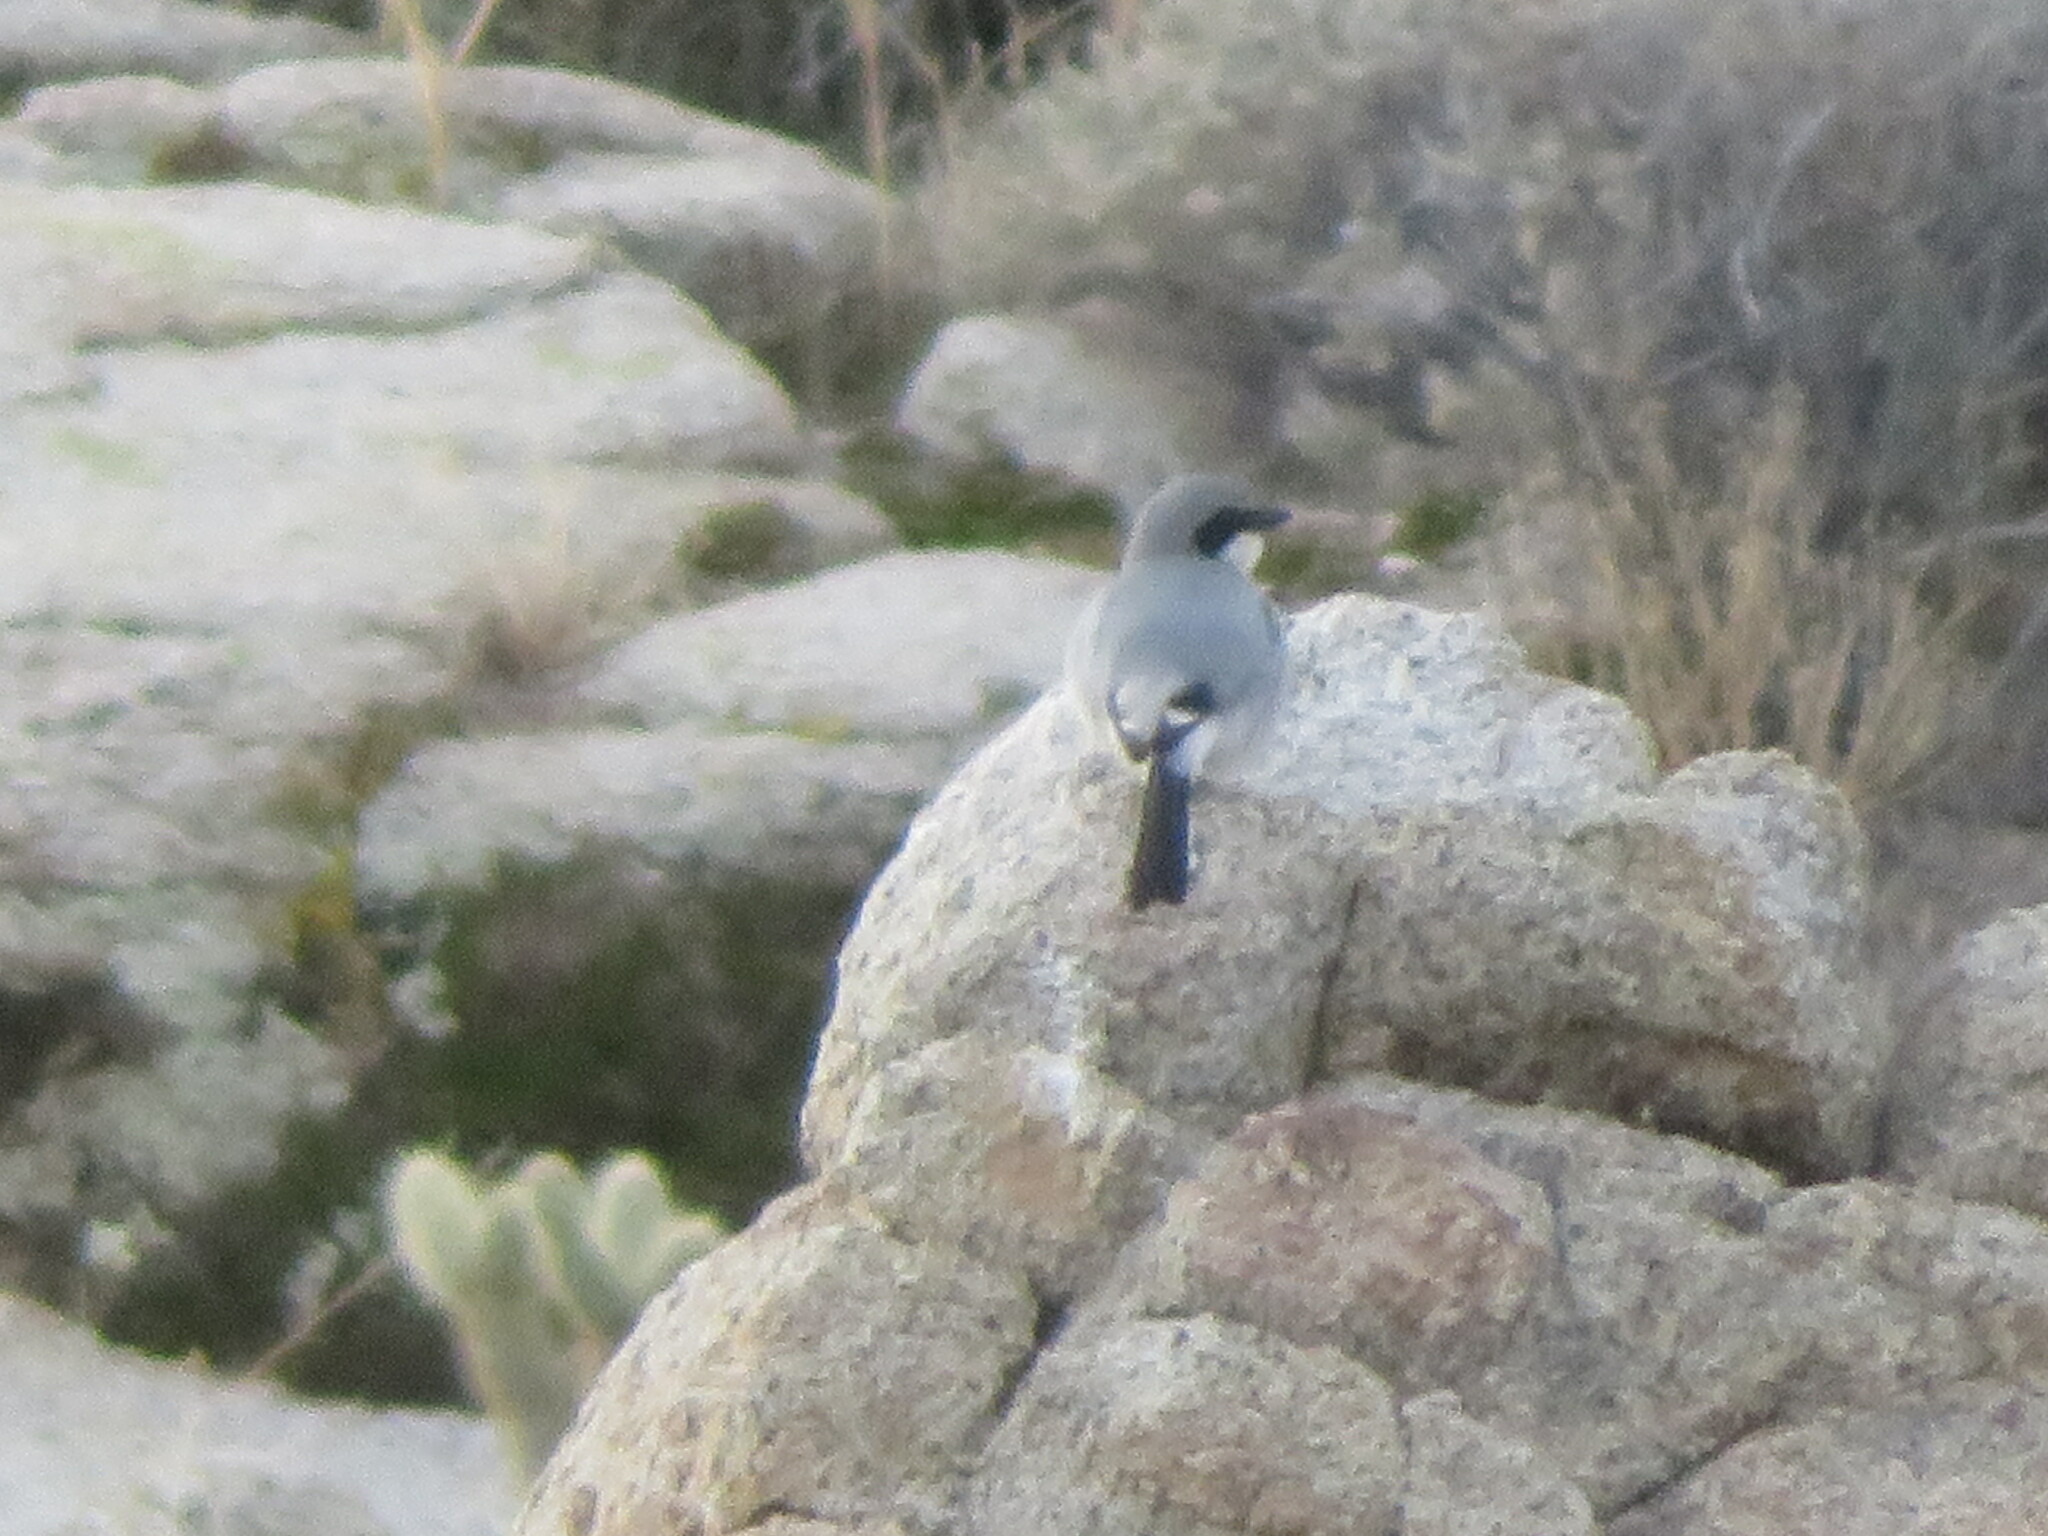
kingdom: Animalia
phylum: Chordata
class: Aves
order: Passeriformes
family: Laniidae
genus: Lanius
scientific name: Lanius ludovicianus
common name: Loggerhead shrike
